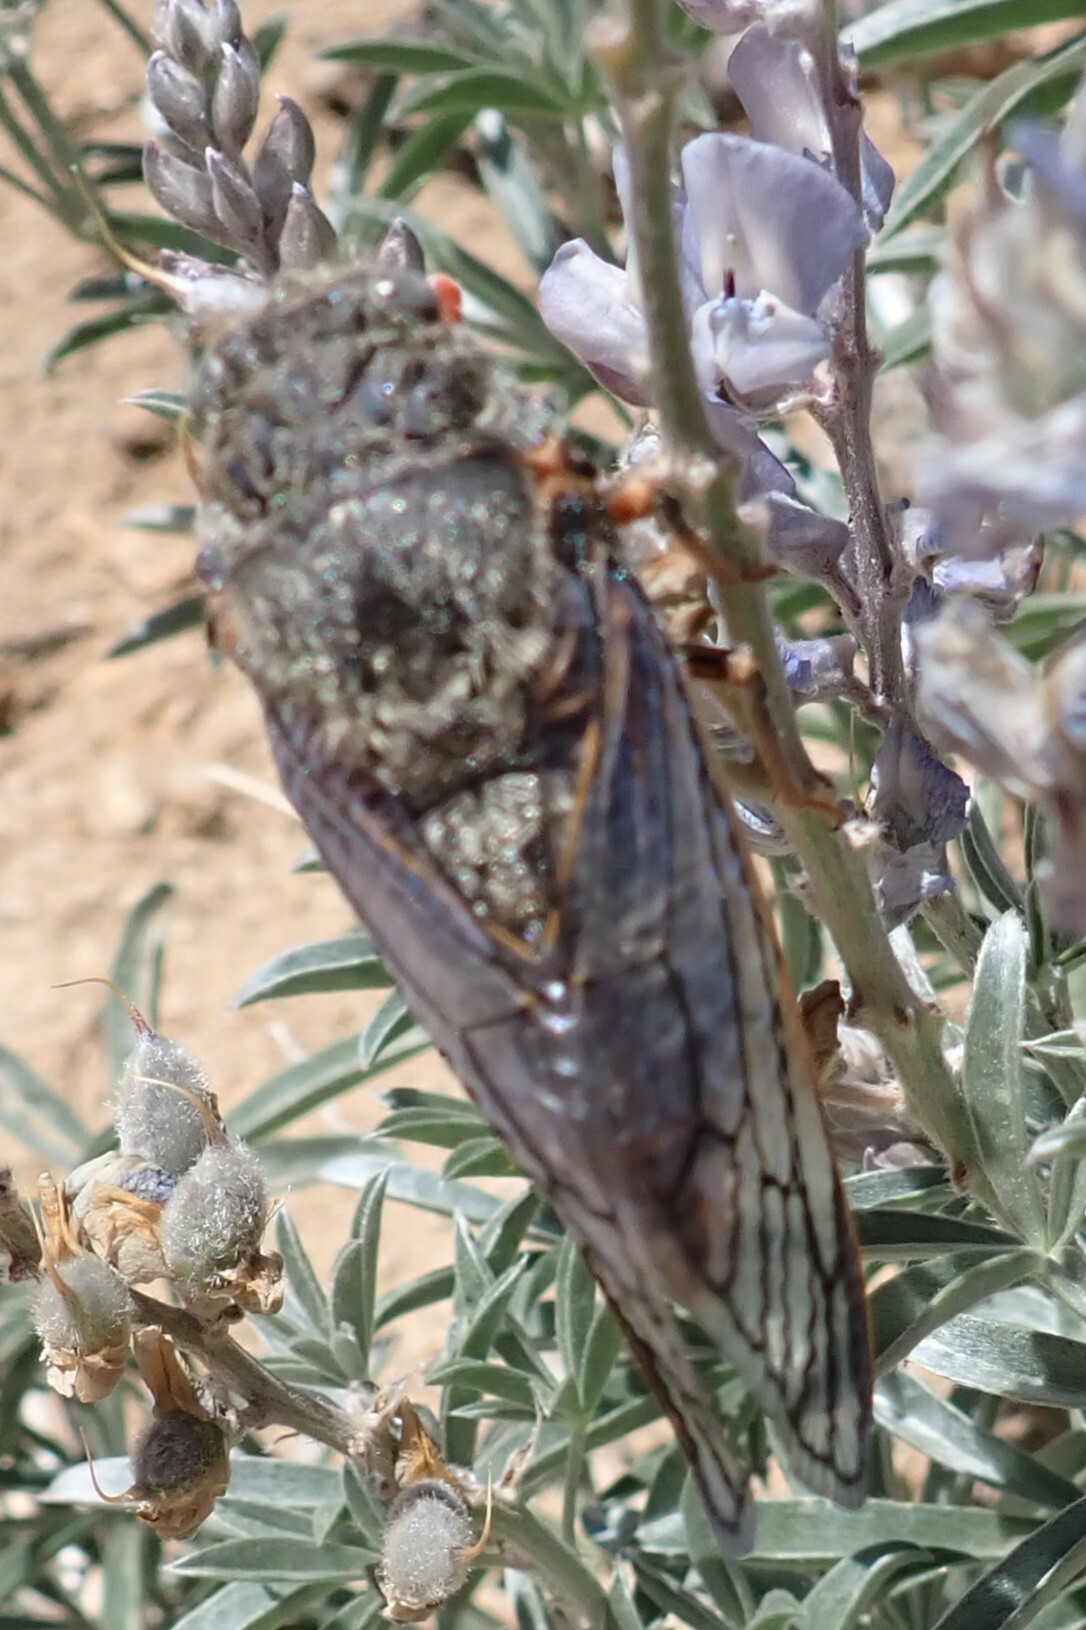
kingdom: Animalia
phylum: Arthropoda
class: Insecta
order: Hemiptera
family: Cicadidae
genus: Okanagana
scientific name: Okanagana magnifica
